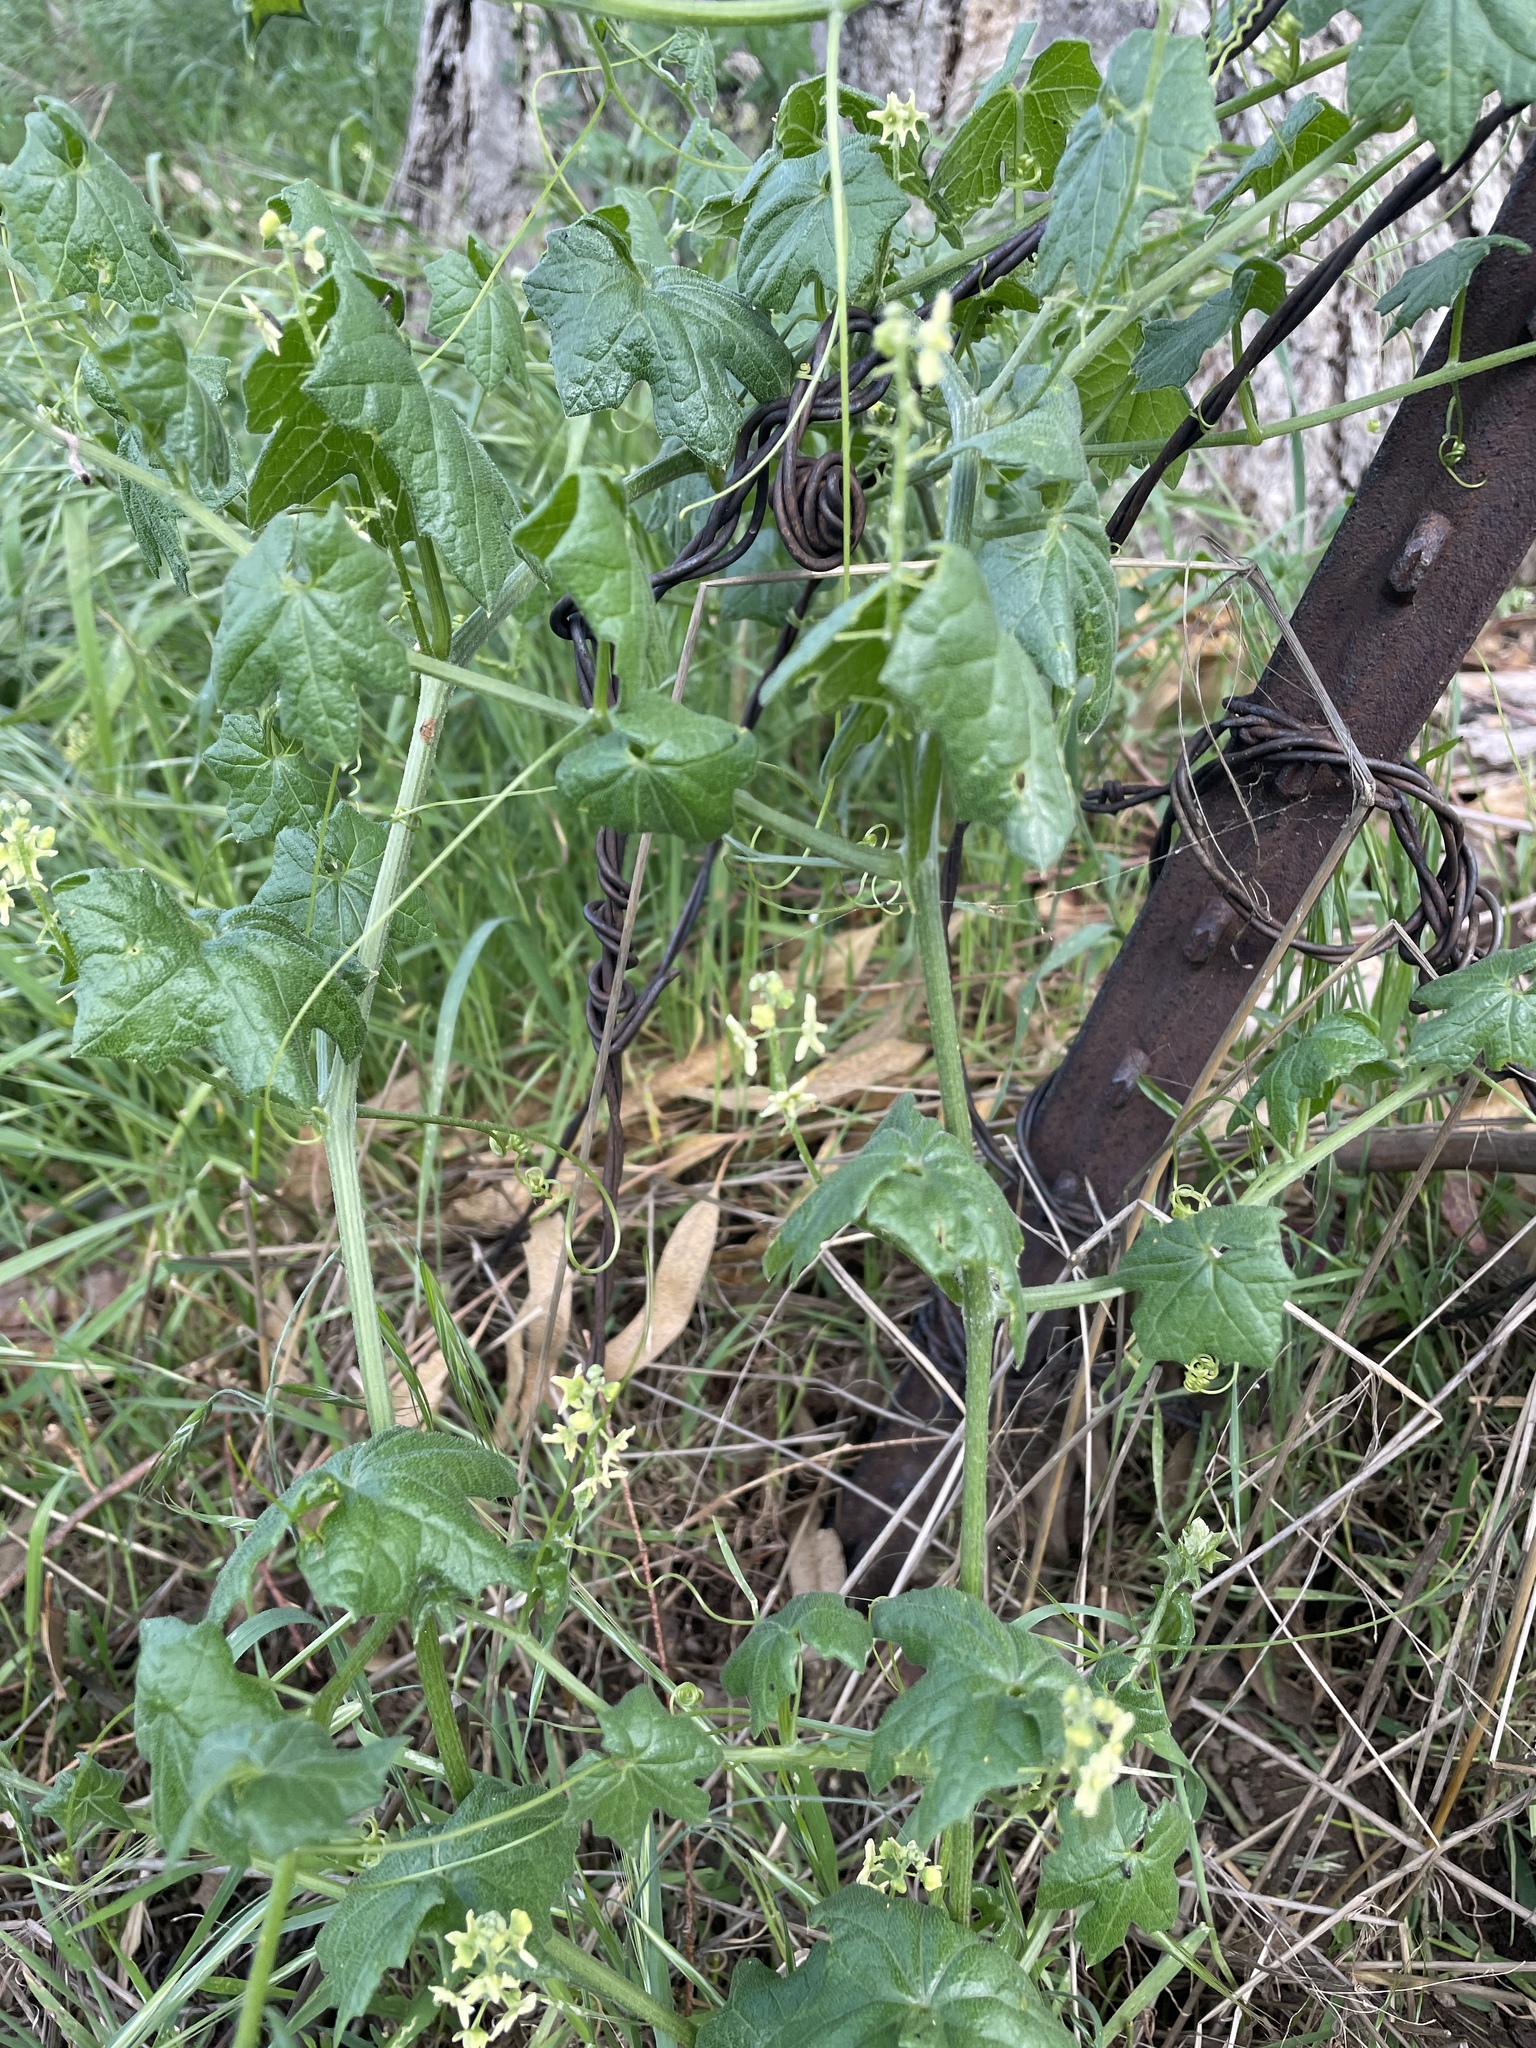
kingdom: Plantae
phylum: Tracheophyta
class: Magnoliopsida
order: Cucurbitales
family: Cucurbitaceae
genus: Marah
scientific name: Marah fabacea
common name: California manroot
